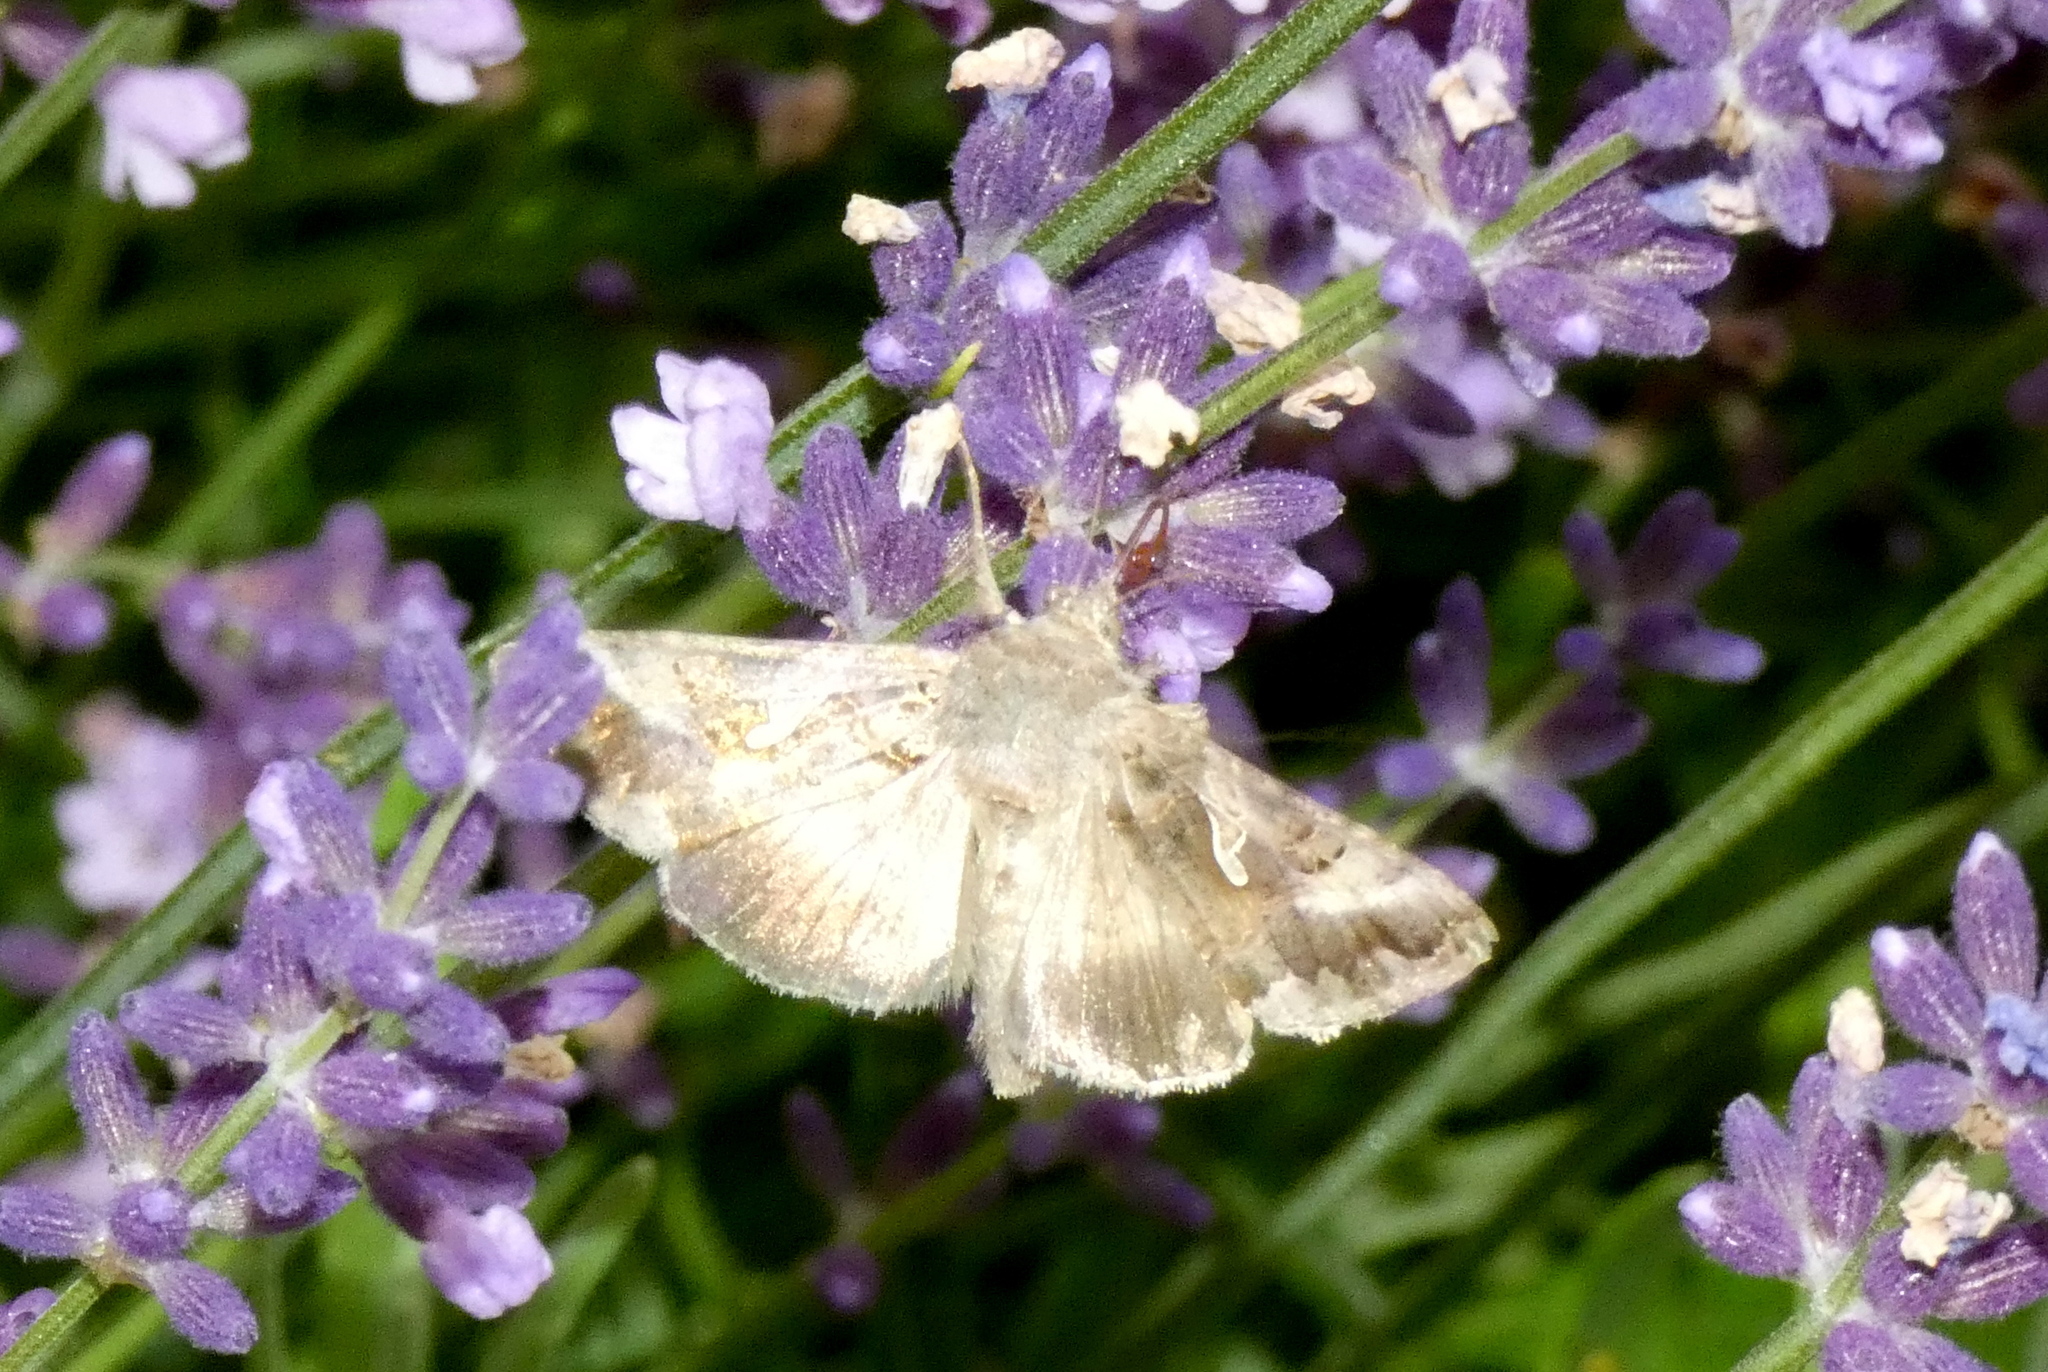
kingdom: Animalia
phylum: Arthropoda
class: Insecta
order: Lepidoptera
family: Noctuidae
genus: Autographa
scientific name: Autographa gamma
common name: Silver y
